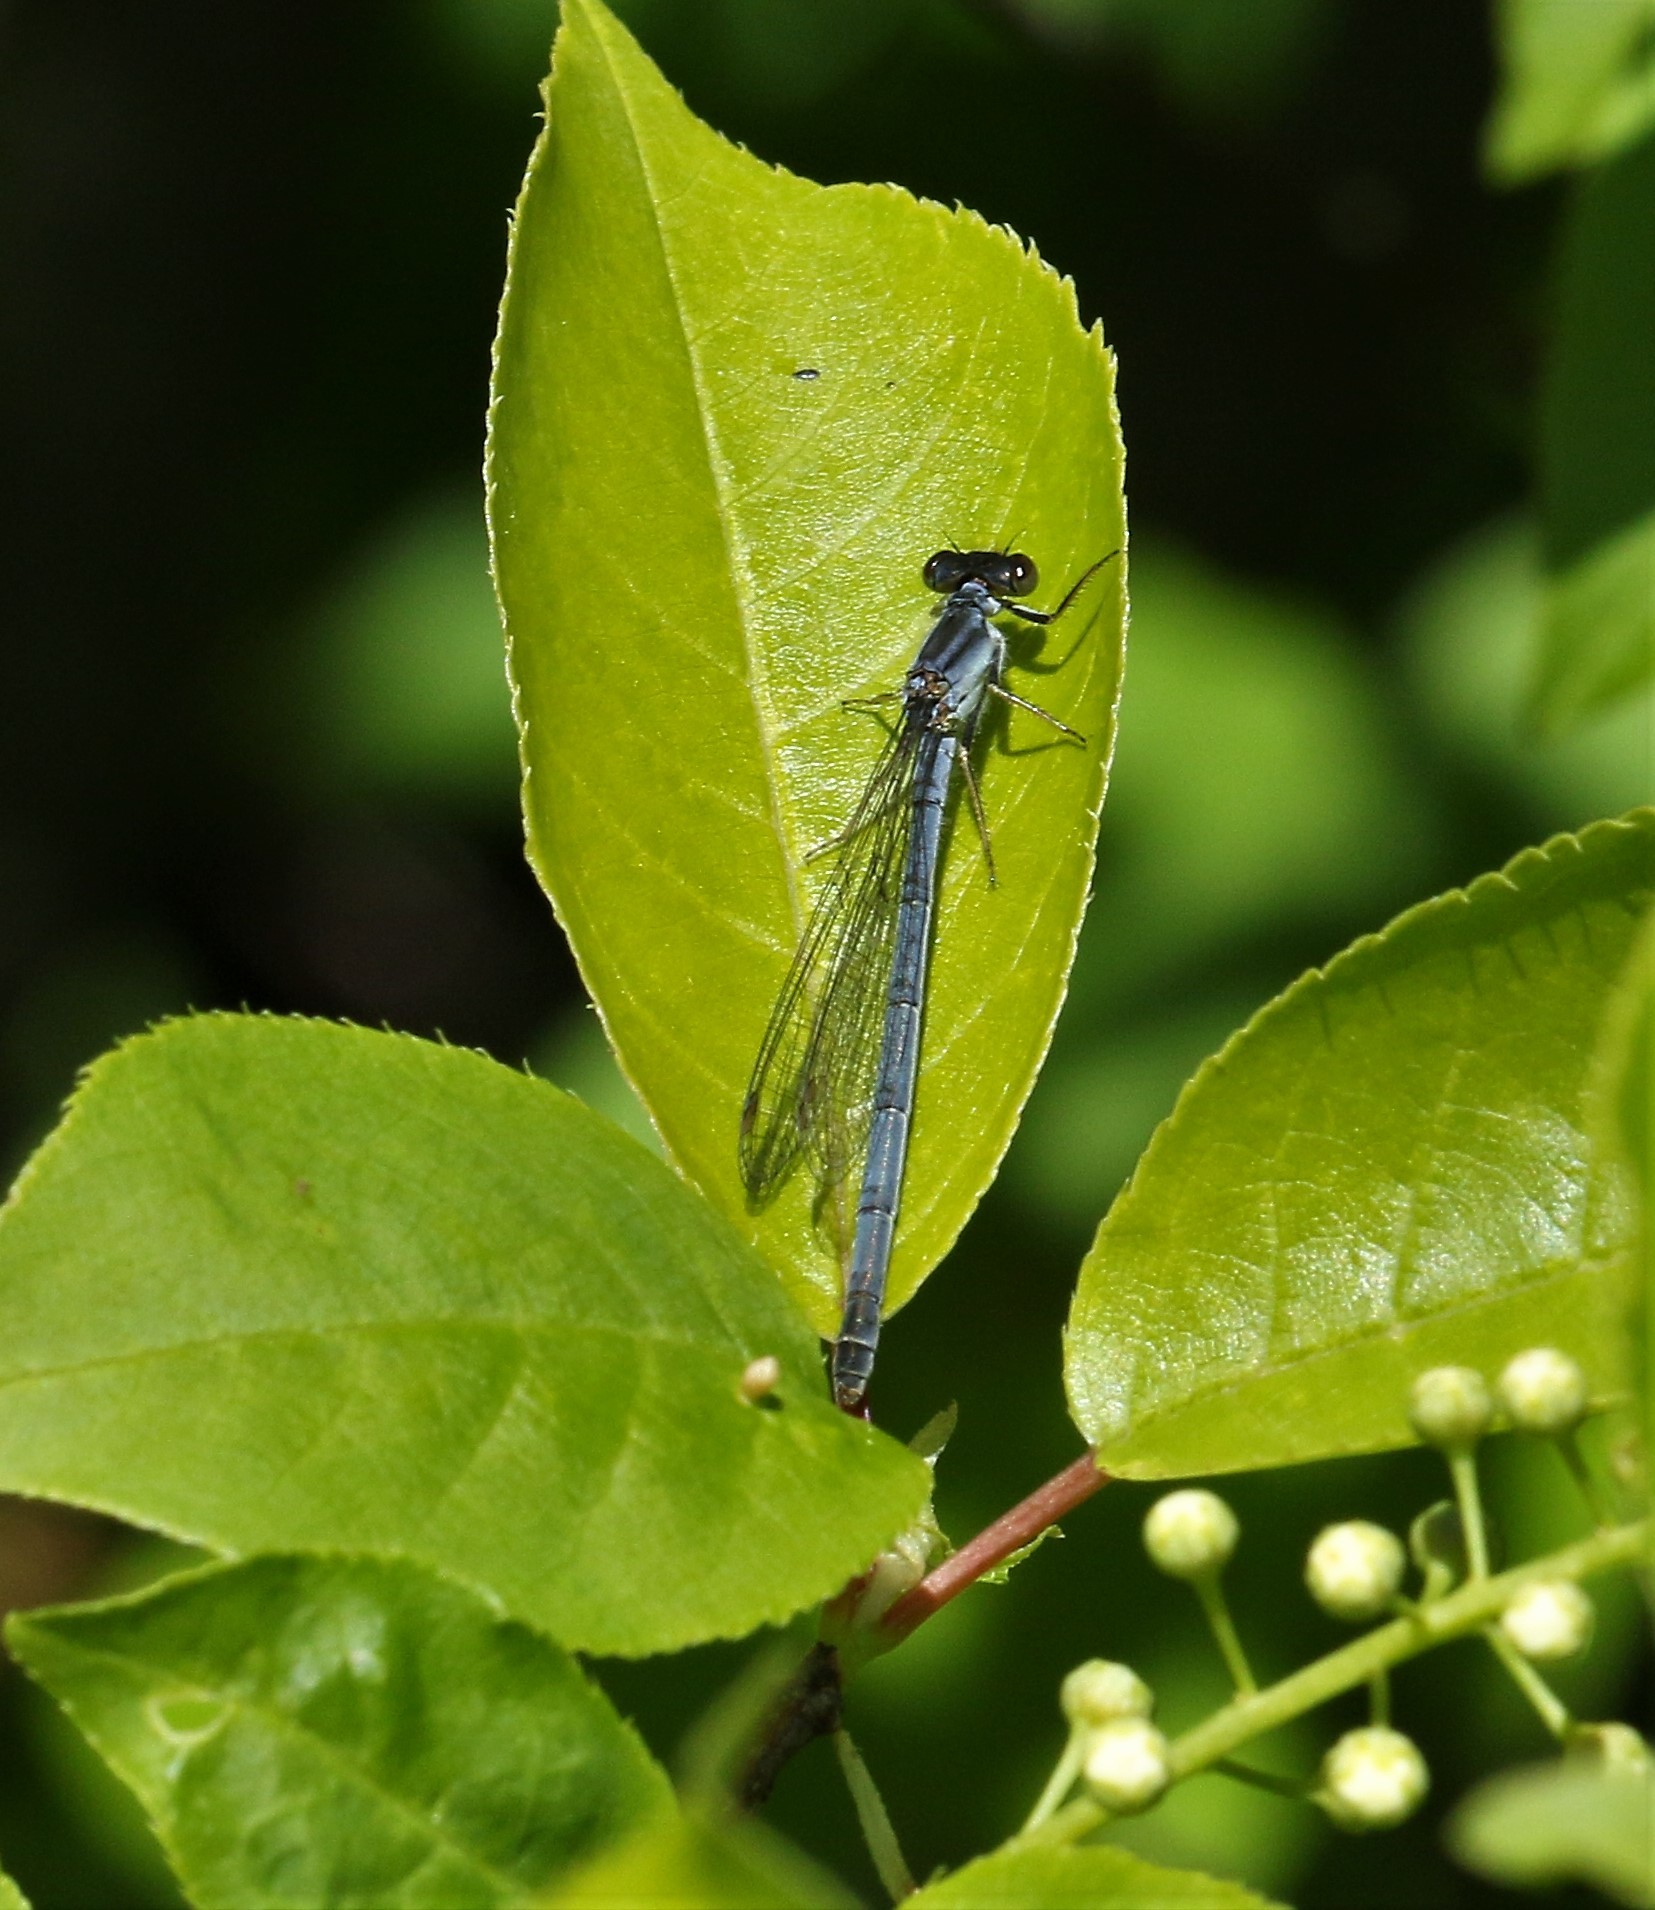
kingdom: Animalia
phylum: Arthropoda
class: Insecta
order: Odonata
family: Coenagrionidae
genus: Ischnura
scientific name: Ischnura verticalis
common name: Eastern forktail
